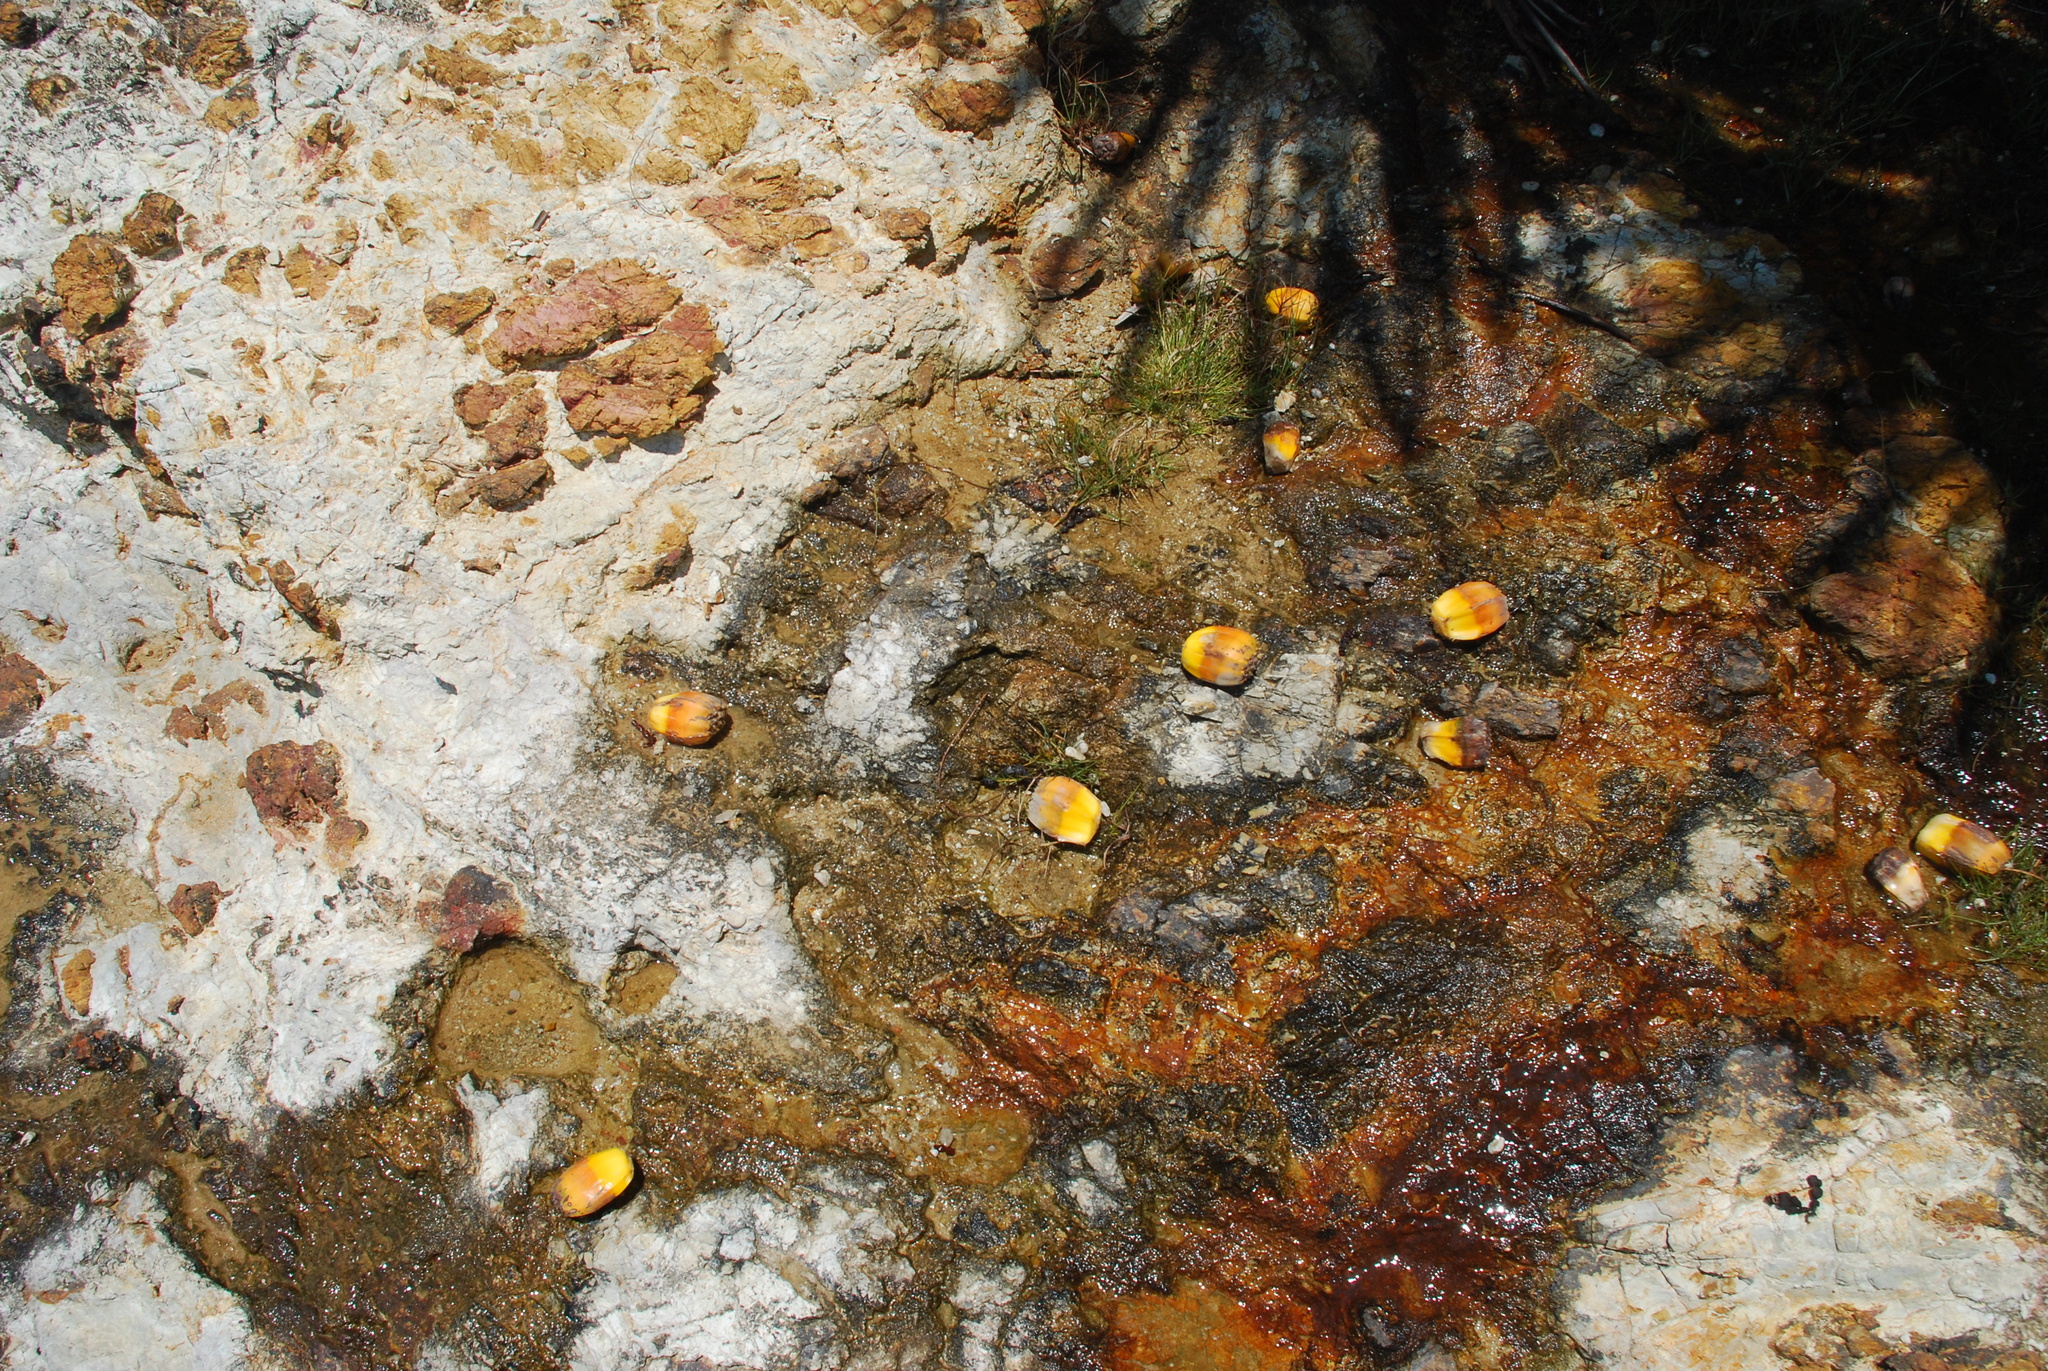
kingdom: Plantae
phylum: Tracheophyta
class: Liliopsida
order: Pandanales
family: Pandanaceae
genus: Pandanus
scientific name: Pandanus tectorius
